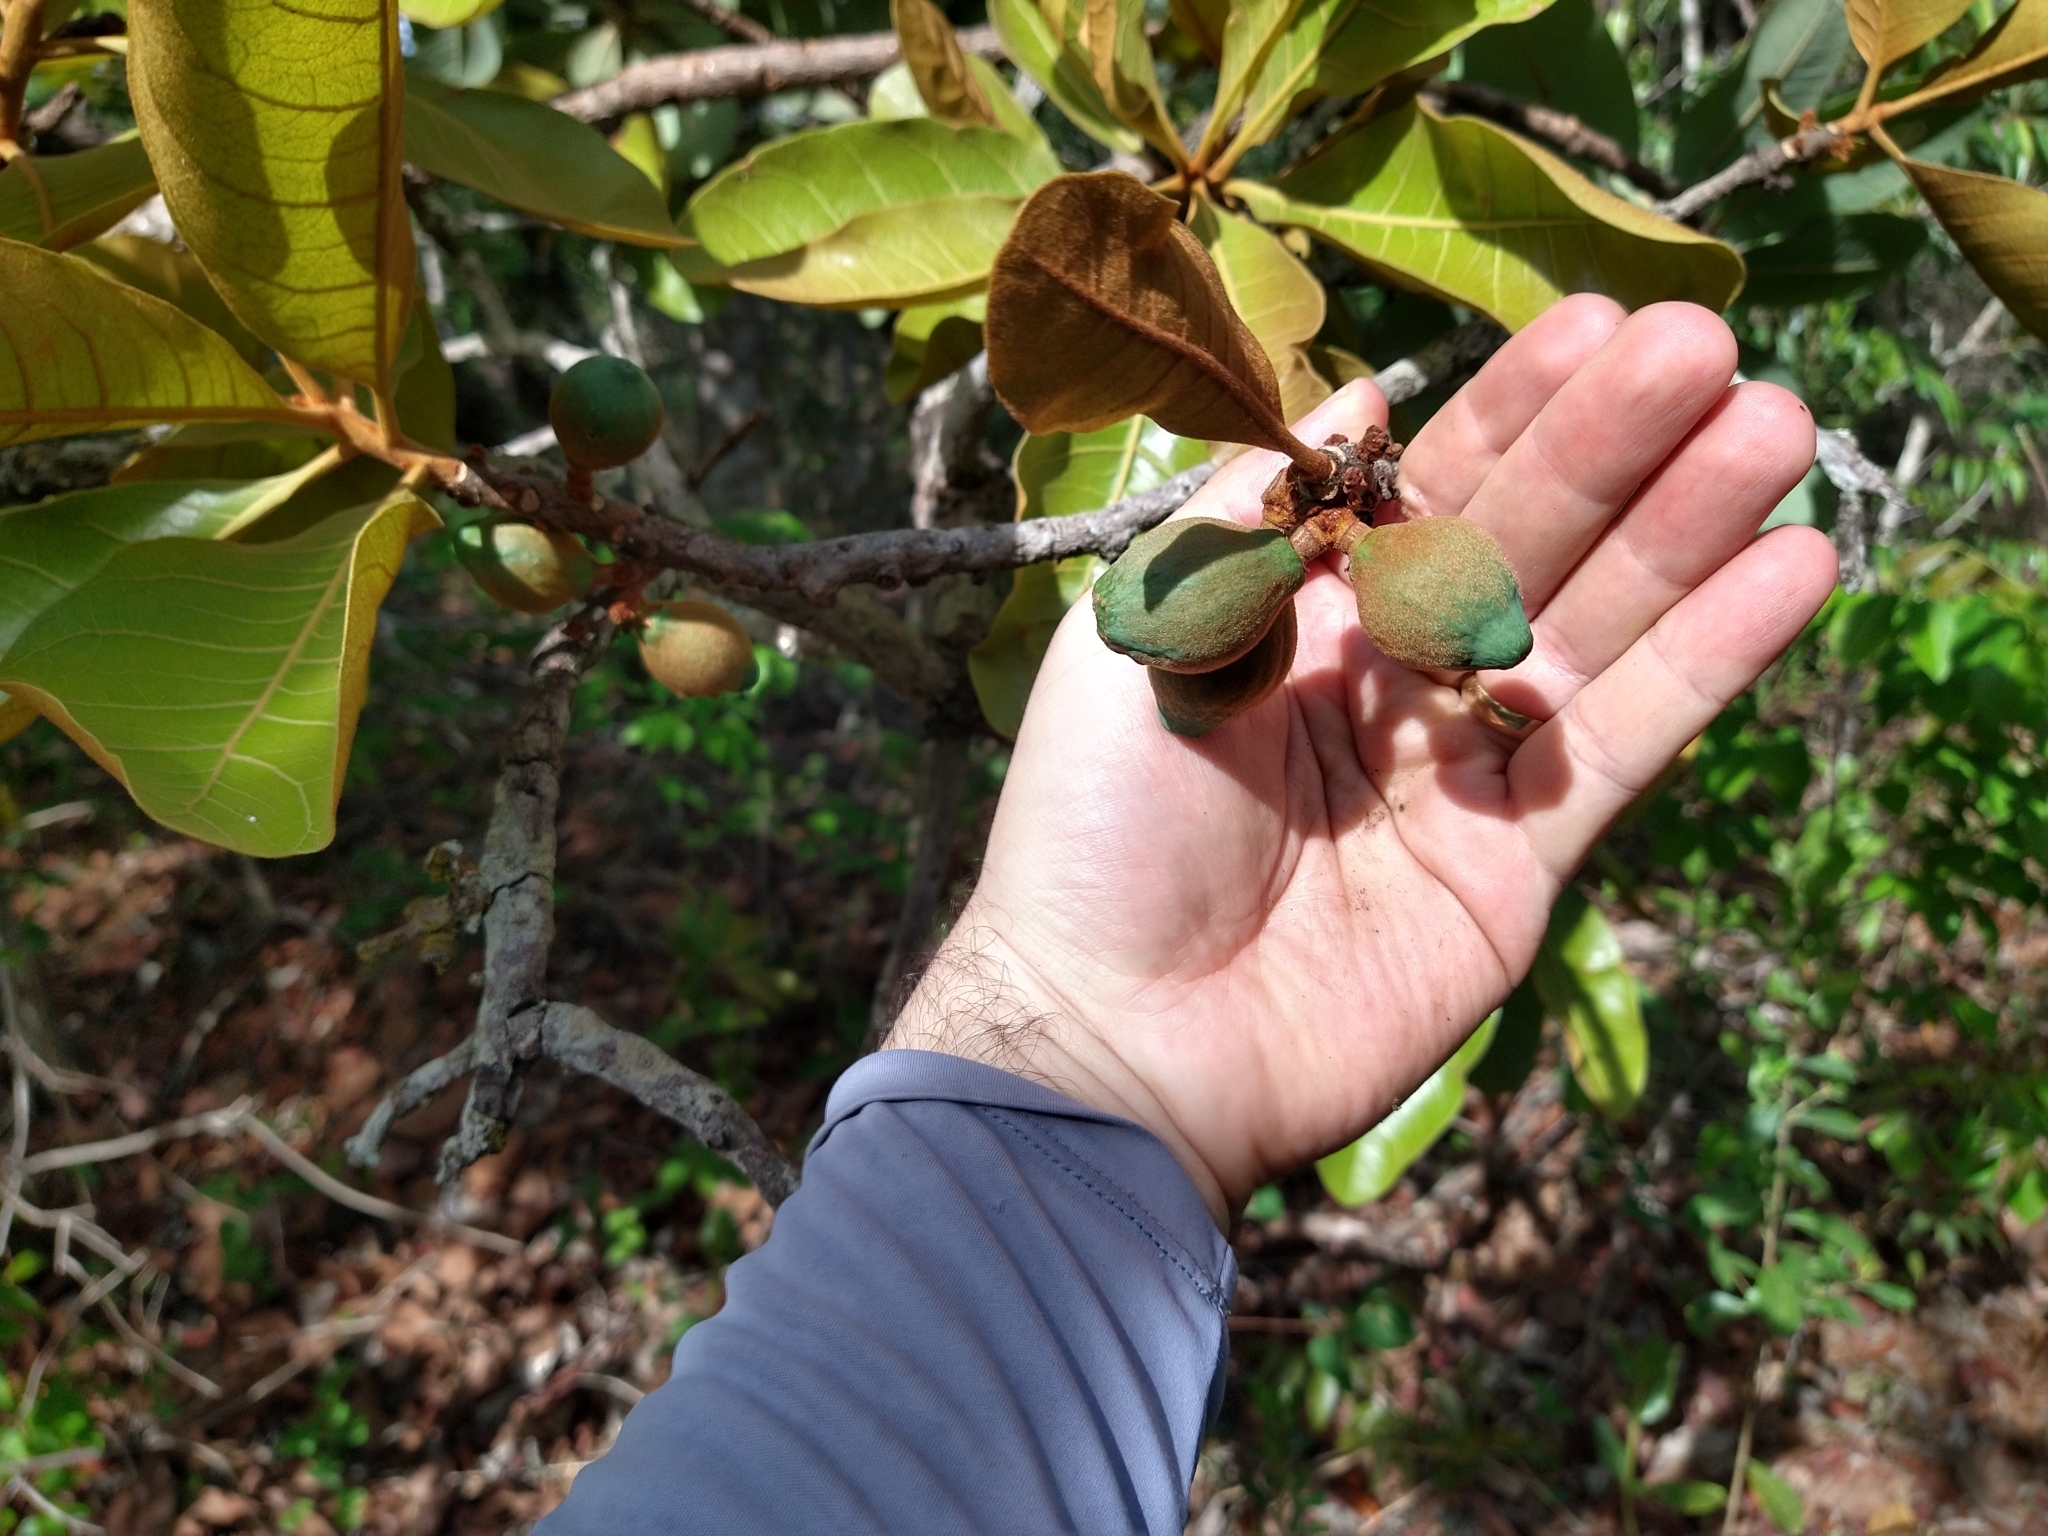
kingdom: Plantae
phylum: Tracheophyta
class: Magnoliopsida
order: Ericales
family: Sapotaceae
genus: Pouteria
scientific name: Pouteria ramiflora
